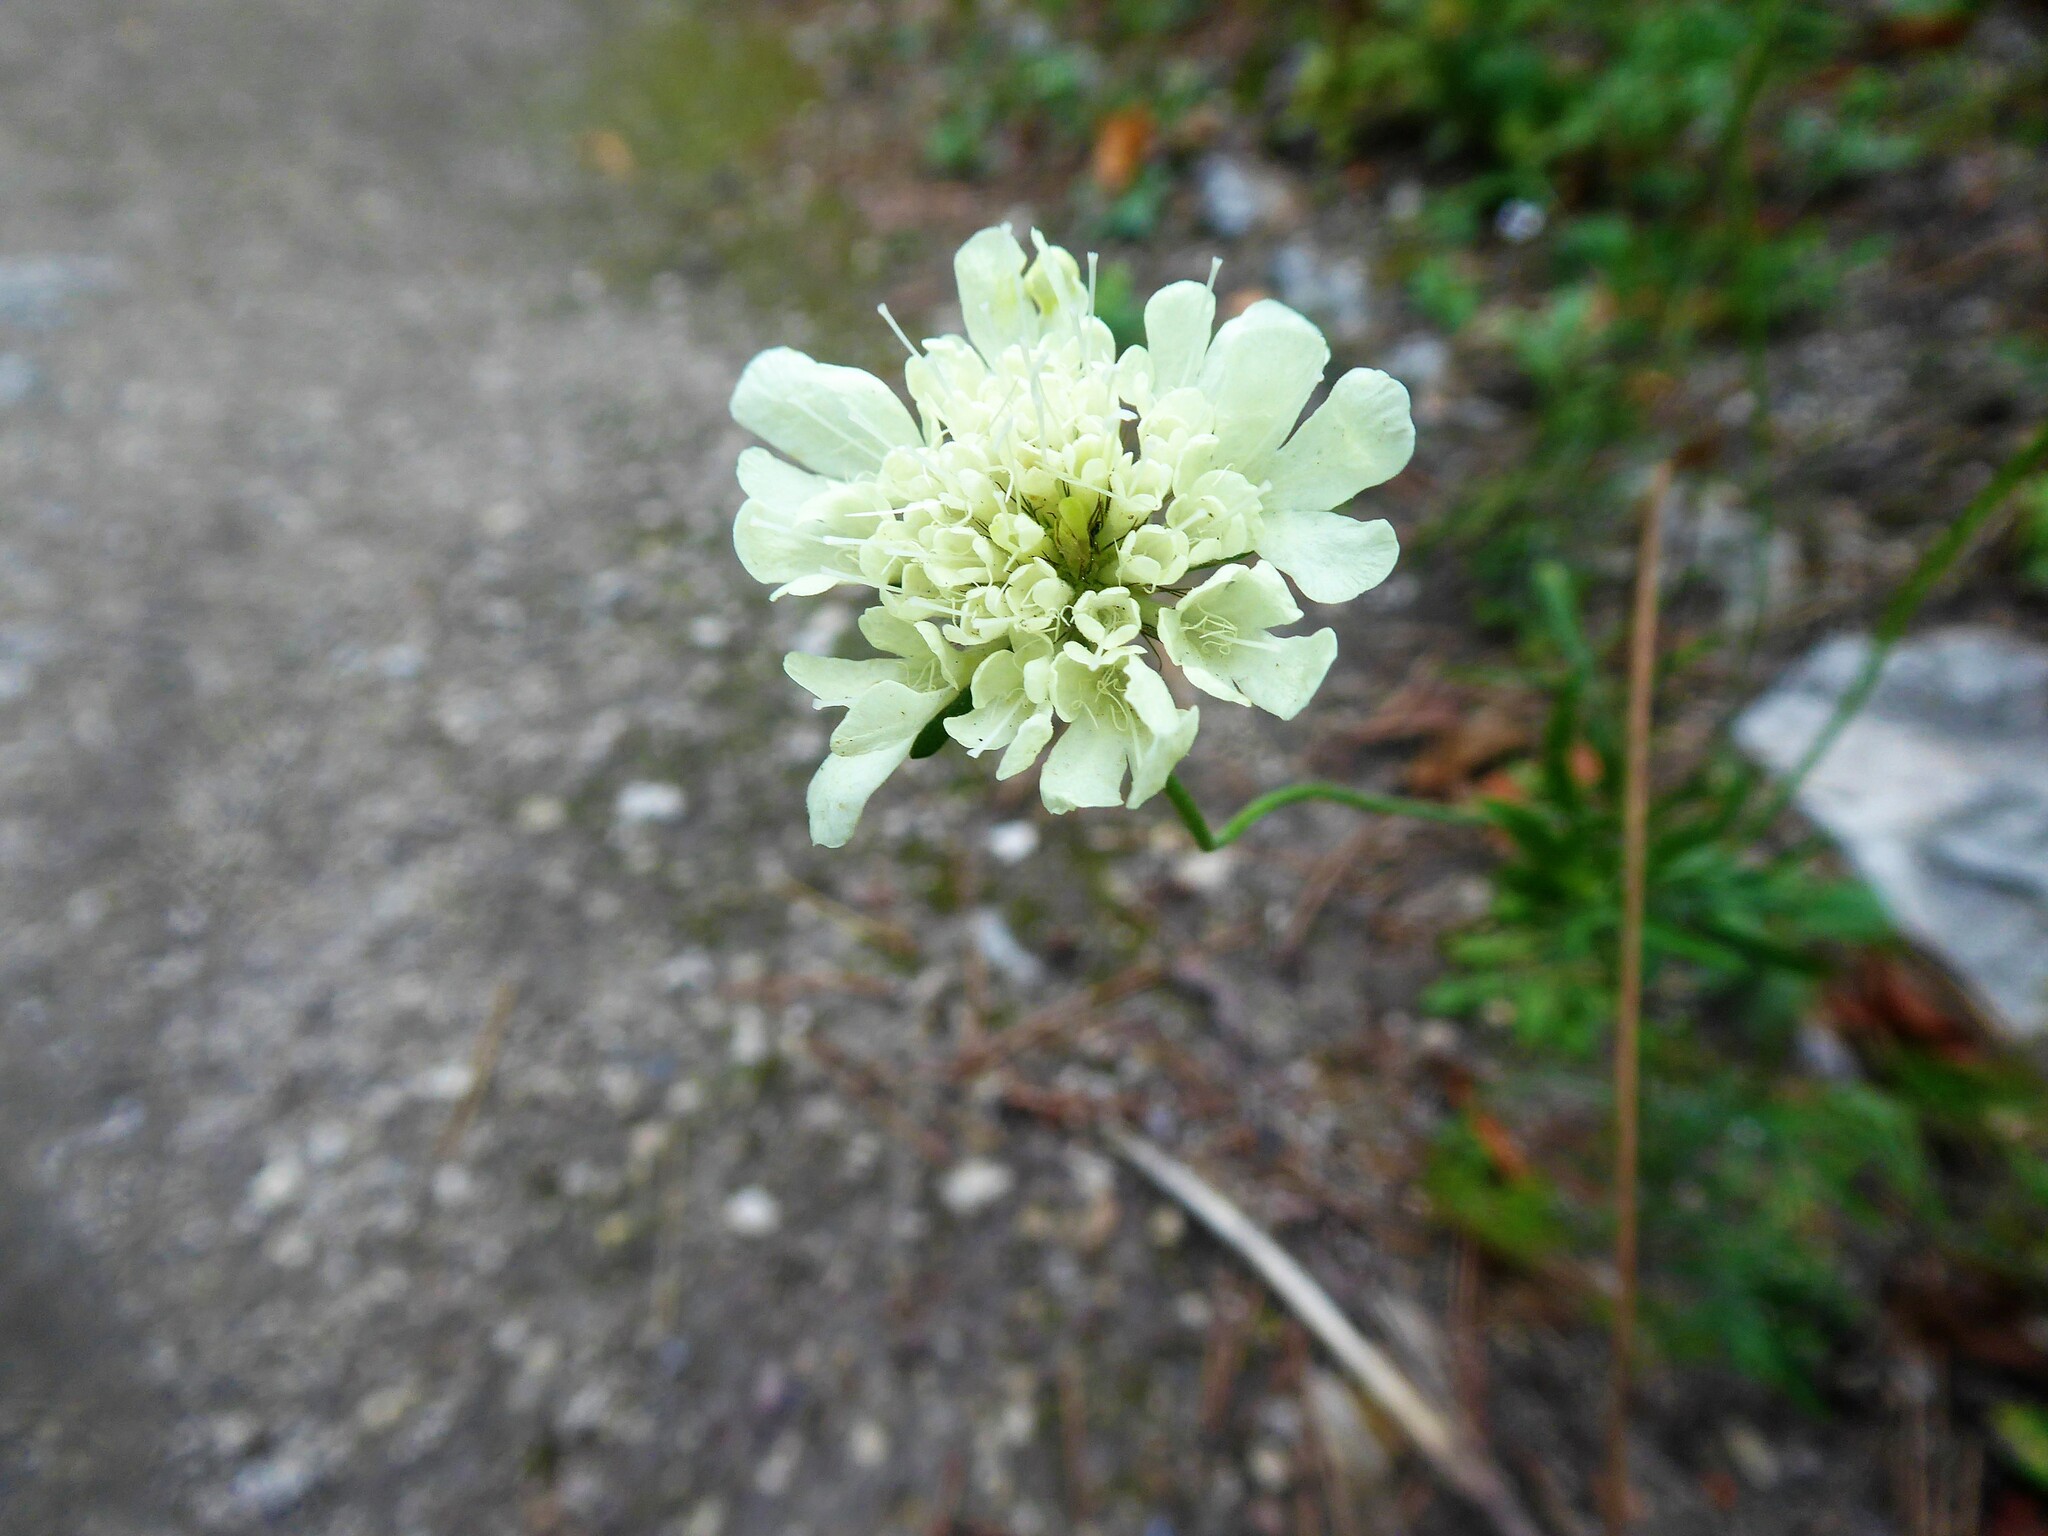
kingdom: Plantae
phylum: Tracheophyta
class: Magnoliopsida
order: Dipsacales
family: Caprifoliaceae
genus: Scabiosa
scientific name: Scabiosa ochroleuca
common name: Cream pincushions
